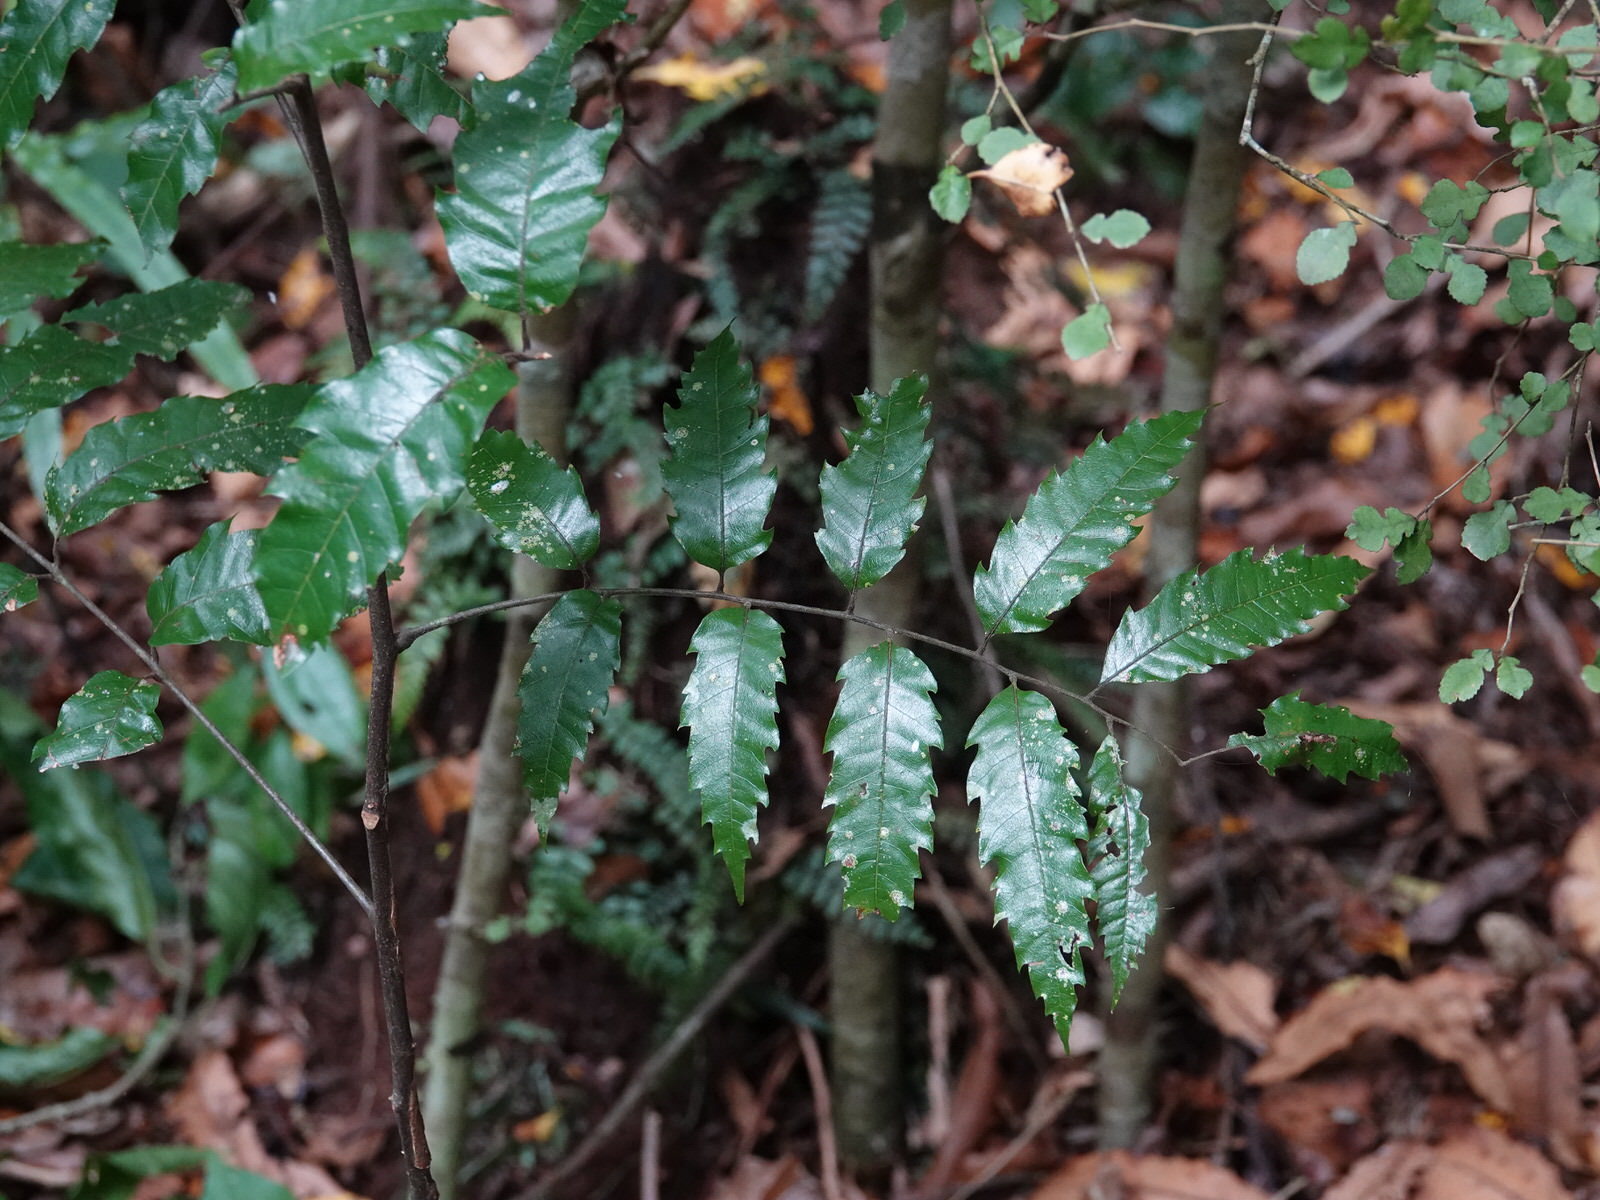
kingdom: Plantae
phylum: Tracheophyta
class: Magnoliopsida
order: Sapindales
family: Sapindaceae
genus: Alectryon
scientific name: Alectryon excelsus
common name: Three kings titoki
